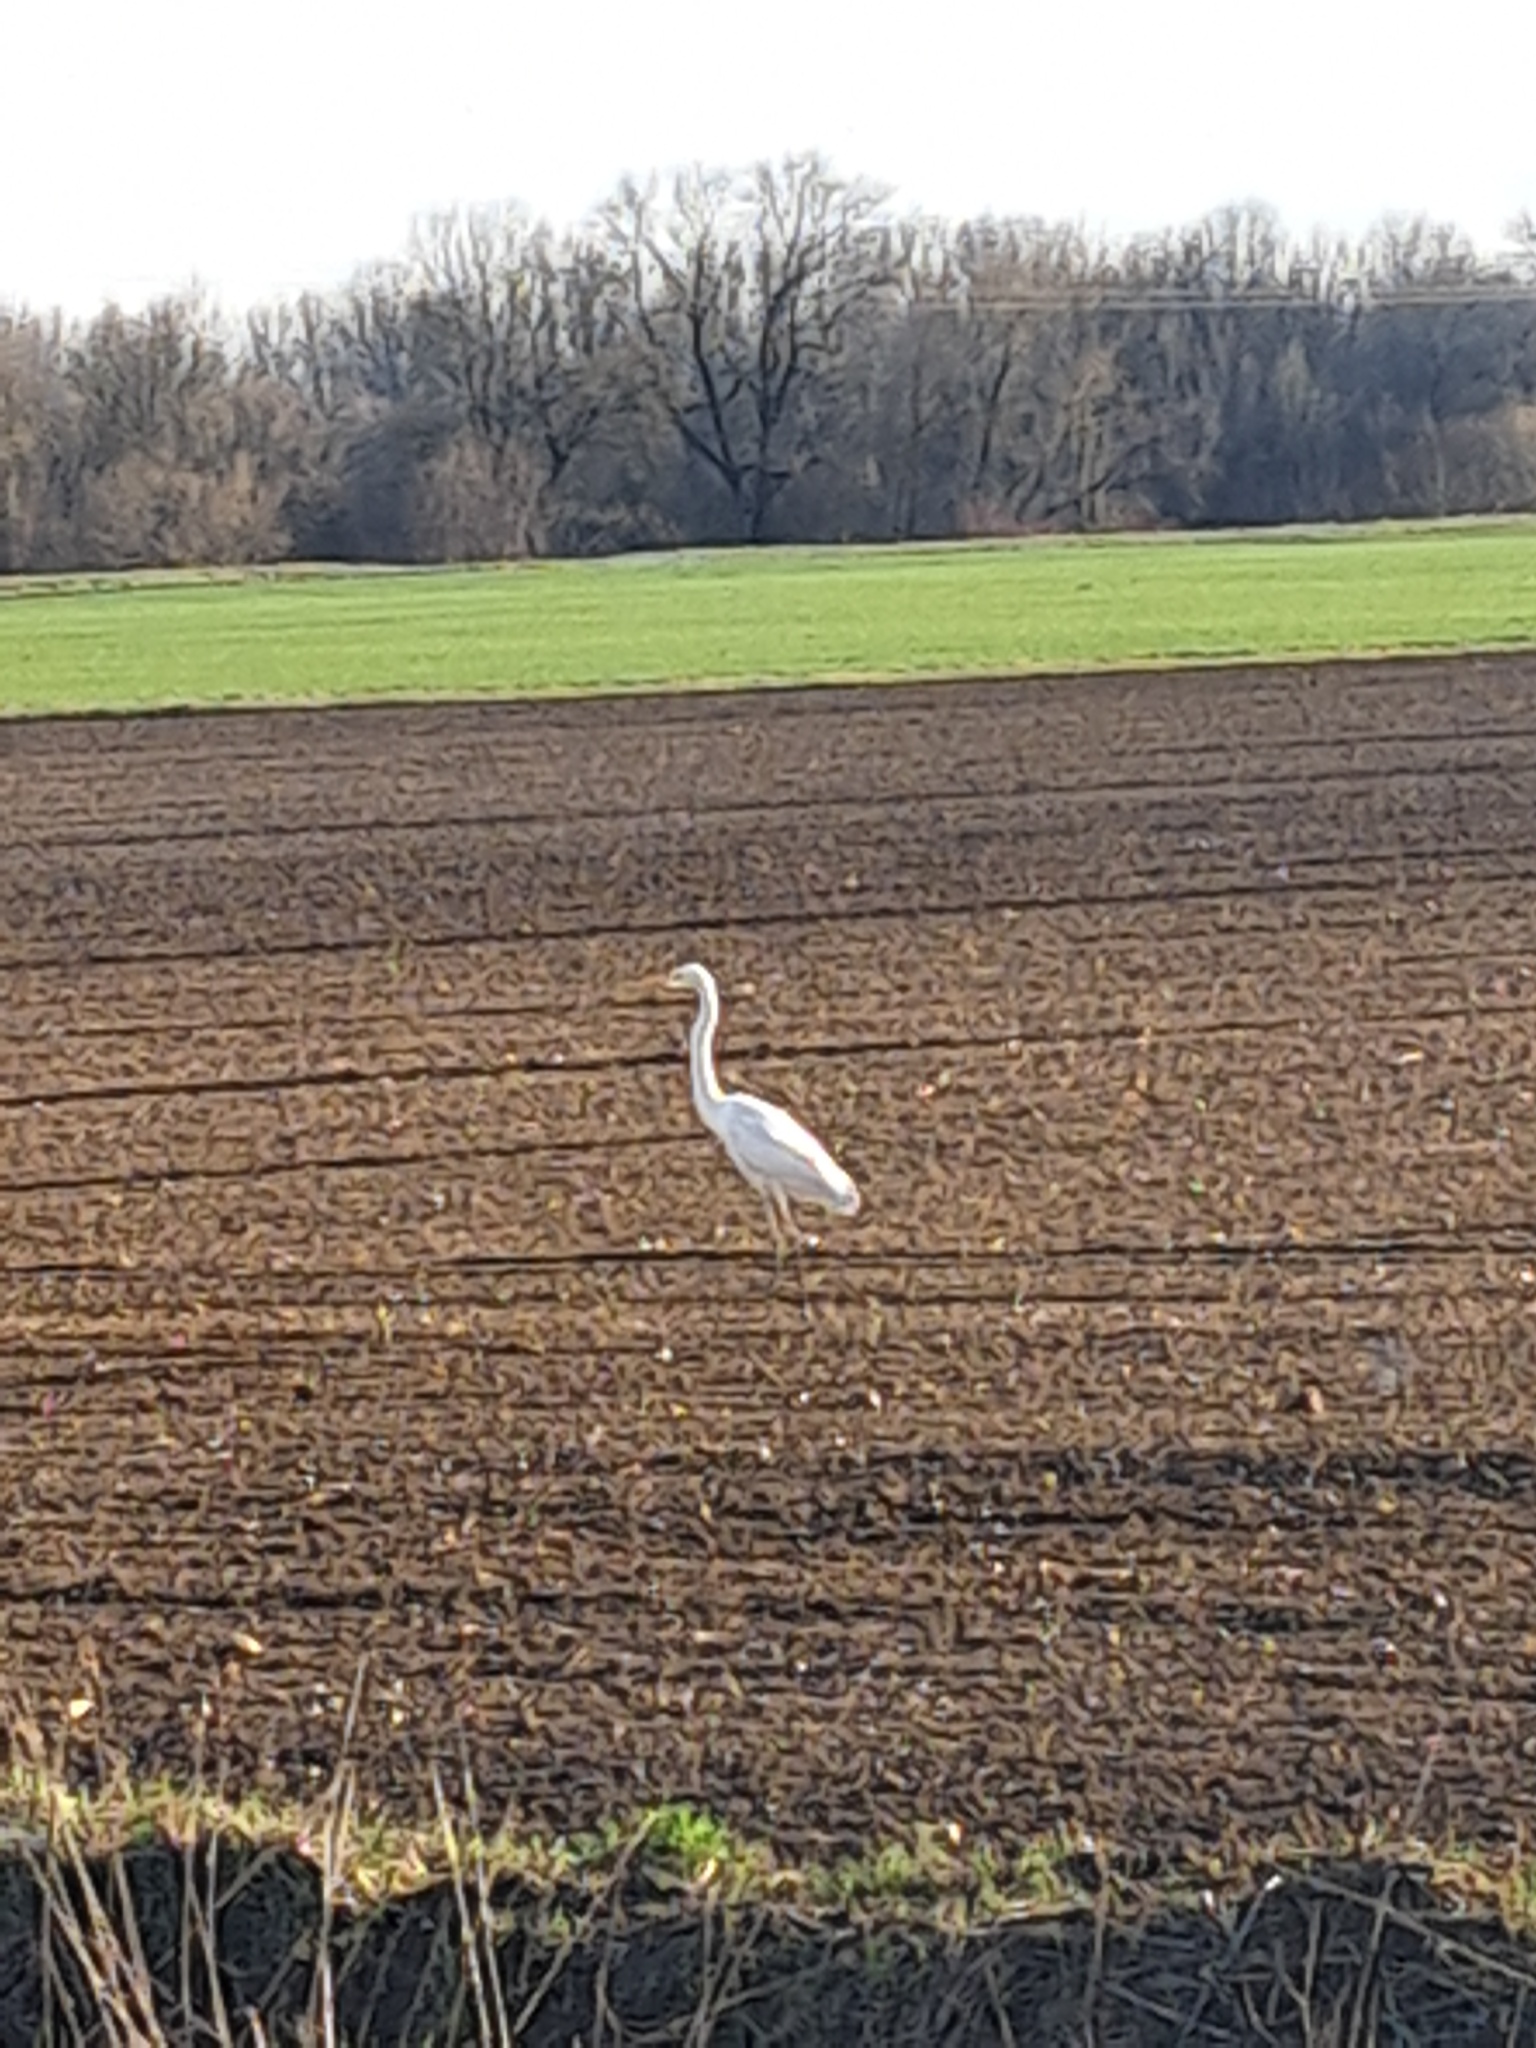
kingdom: Animalia
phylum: Chordata
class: Aves
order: Pelecaniformes
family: Ardeidae
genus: Ardea
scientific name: Ardea alba
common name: Great egret
